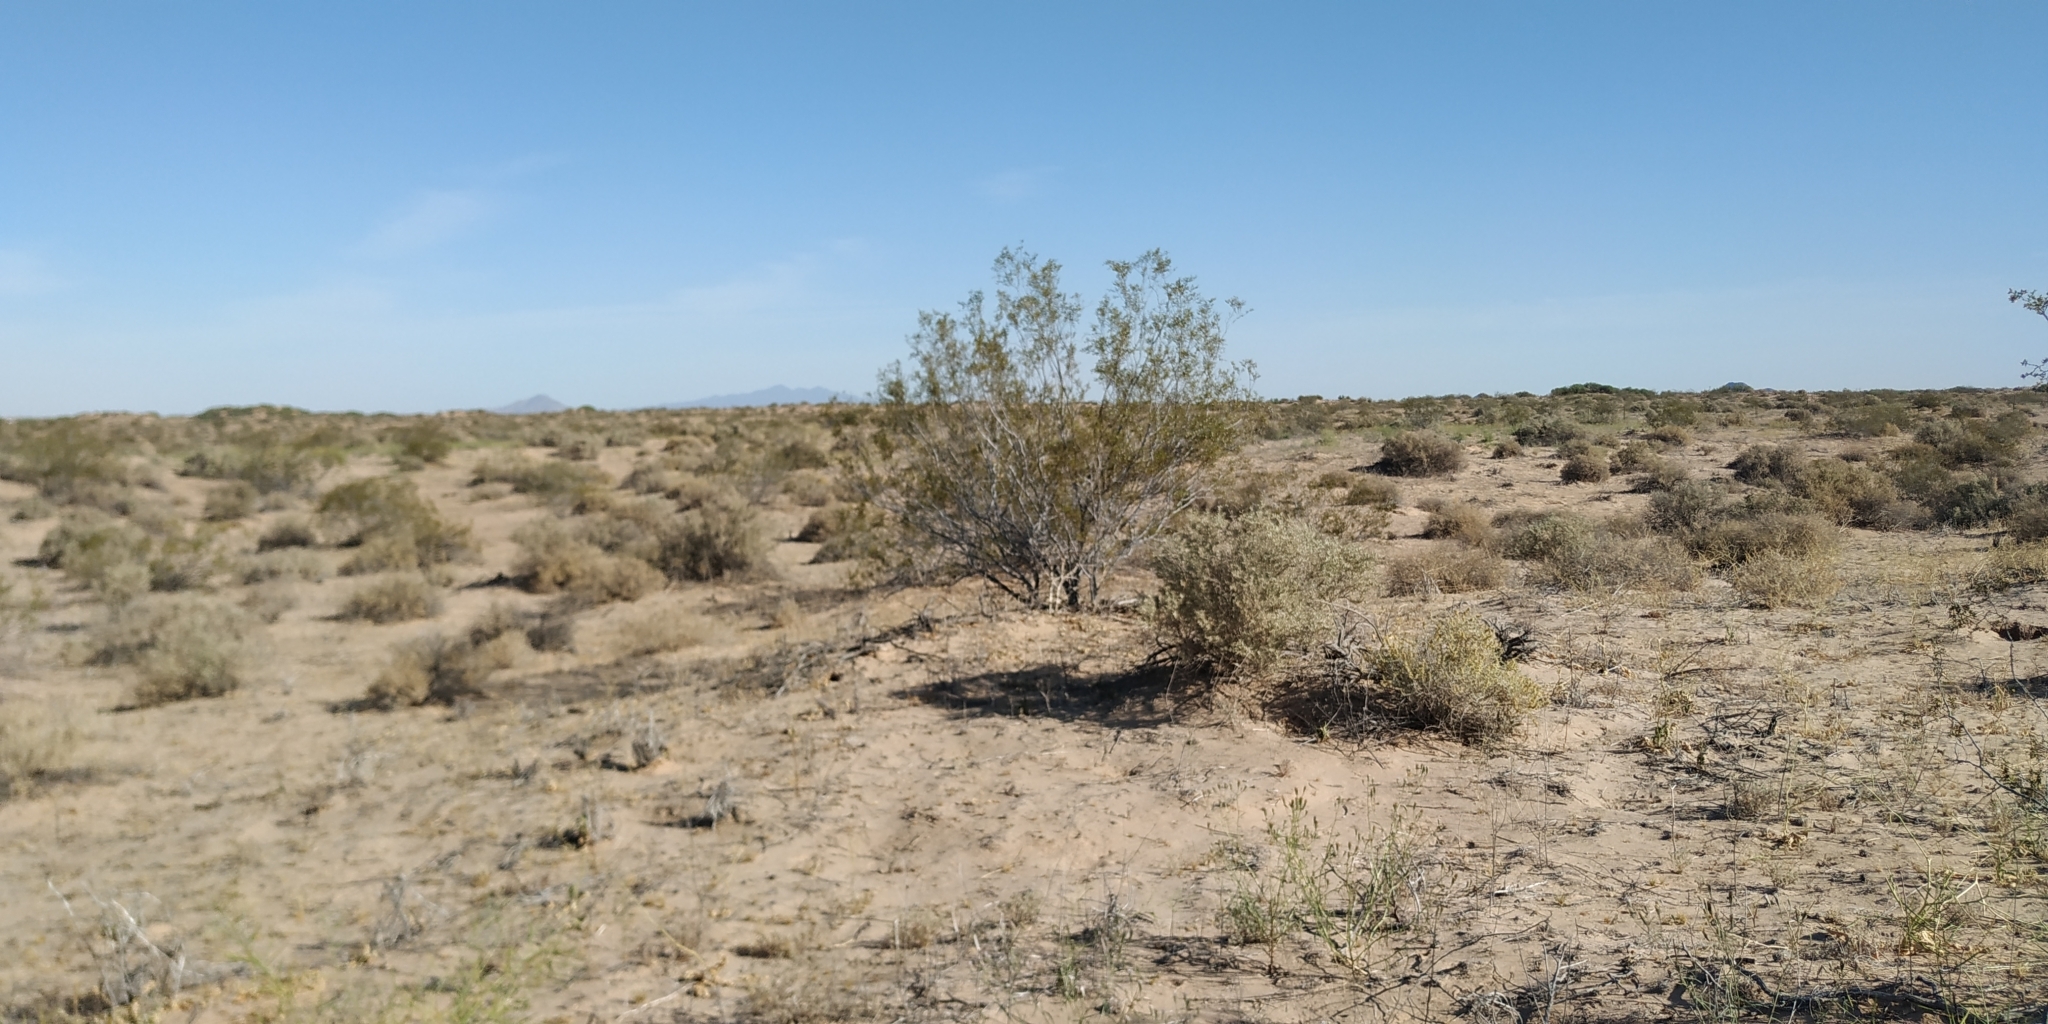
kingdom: Plantae
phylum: Tracheophyta
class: Magnoliopsida
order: Zygophyllales
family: Zygophyllaceae
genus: Larrea
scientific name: Larrea tridentata
